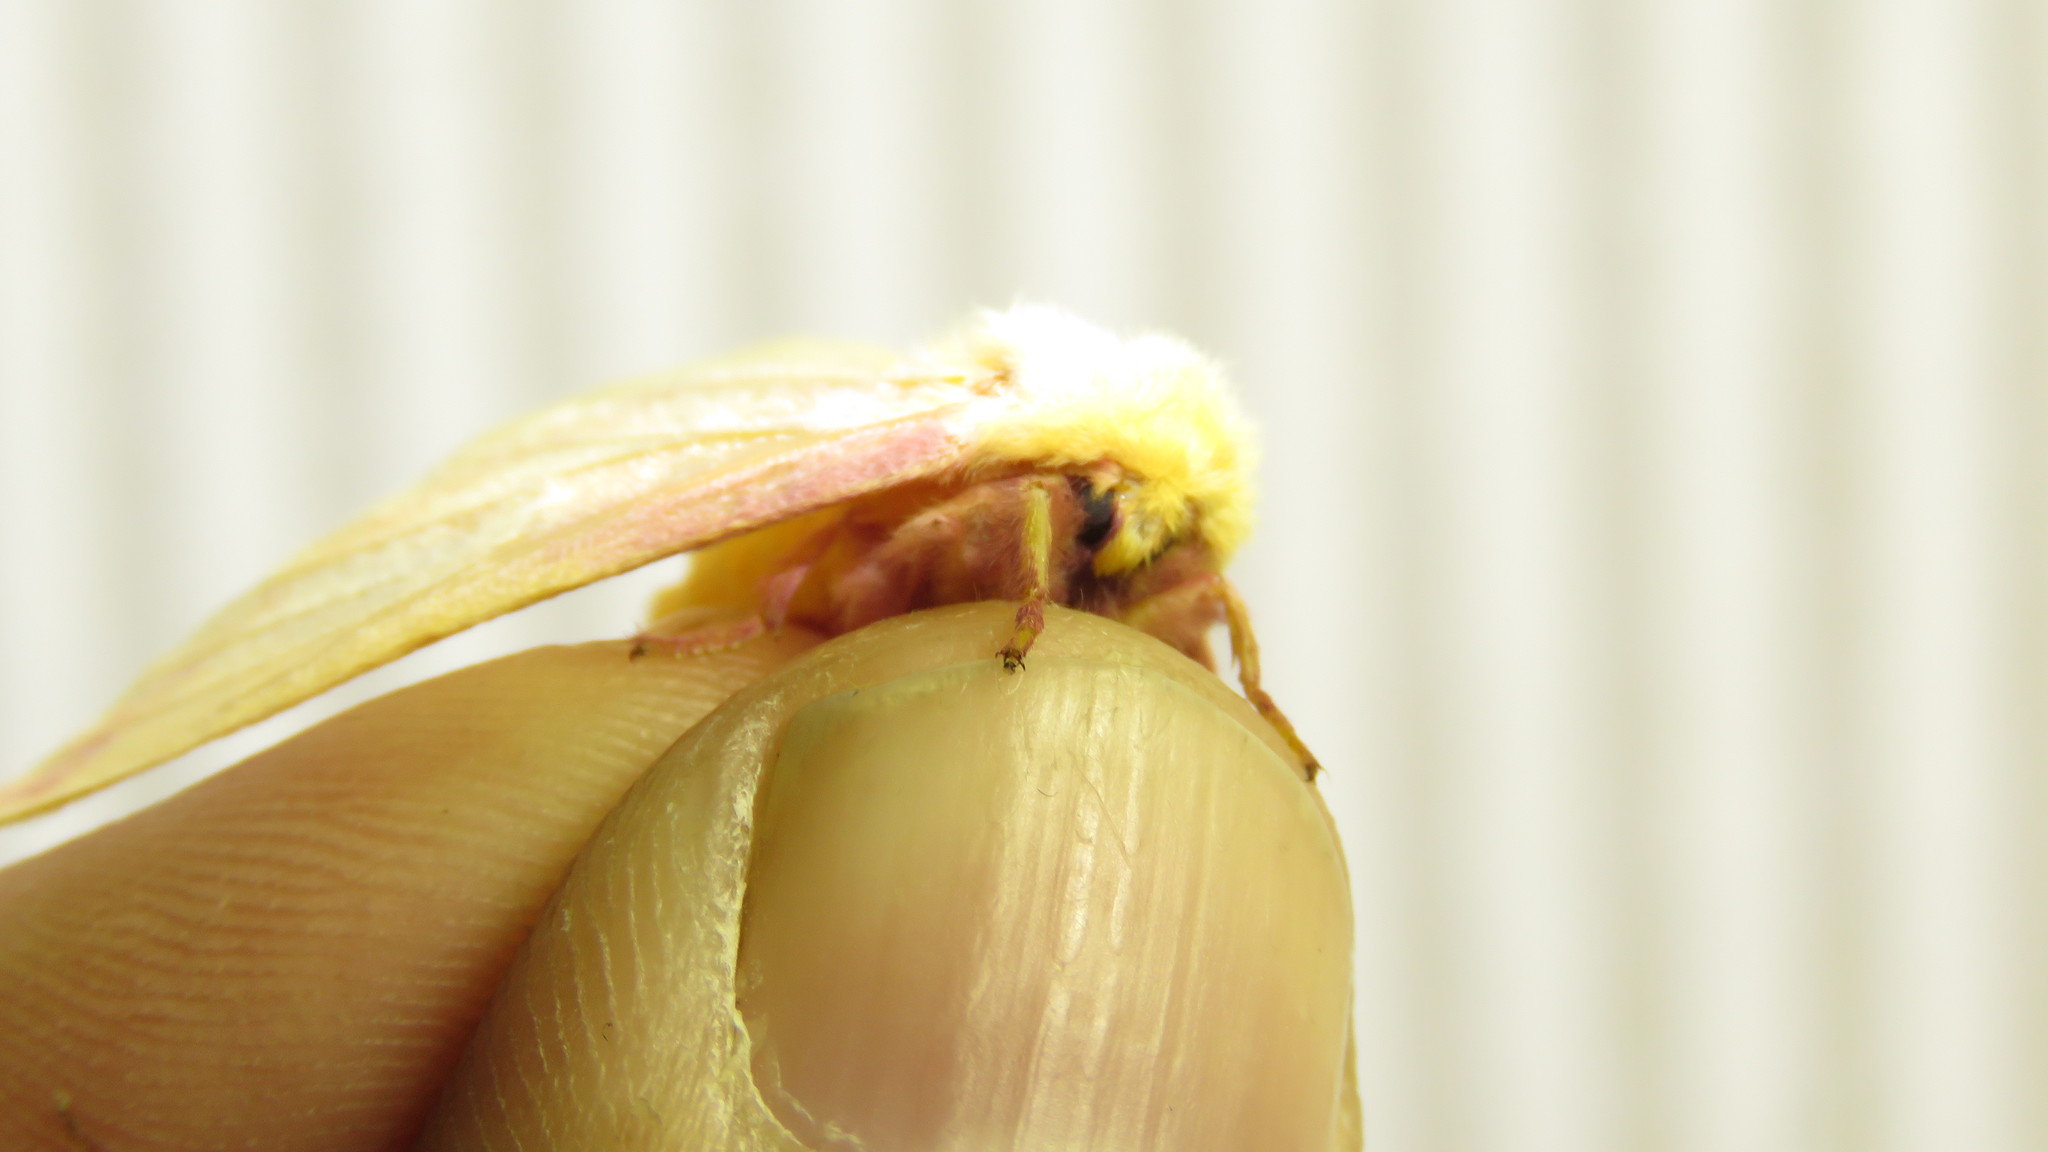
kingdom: Animalia
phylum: Arthropoda
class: Insecta
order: Lepidoptera
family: Saturniidae
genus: Dryocampa
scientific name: Dryocampa rubicunda
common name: Rosy maple moth
